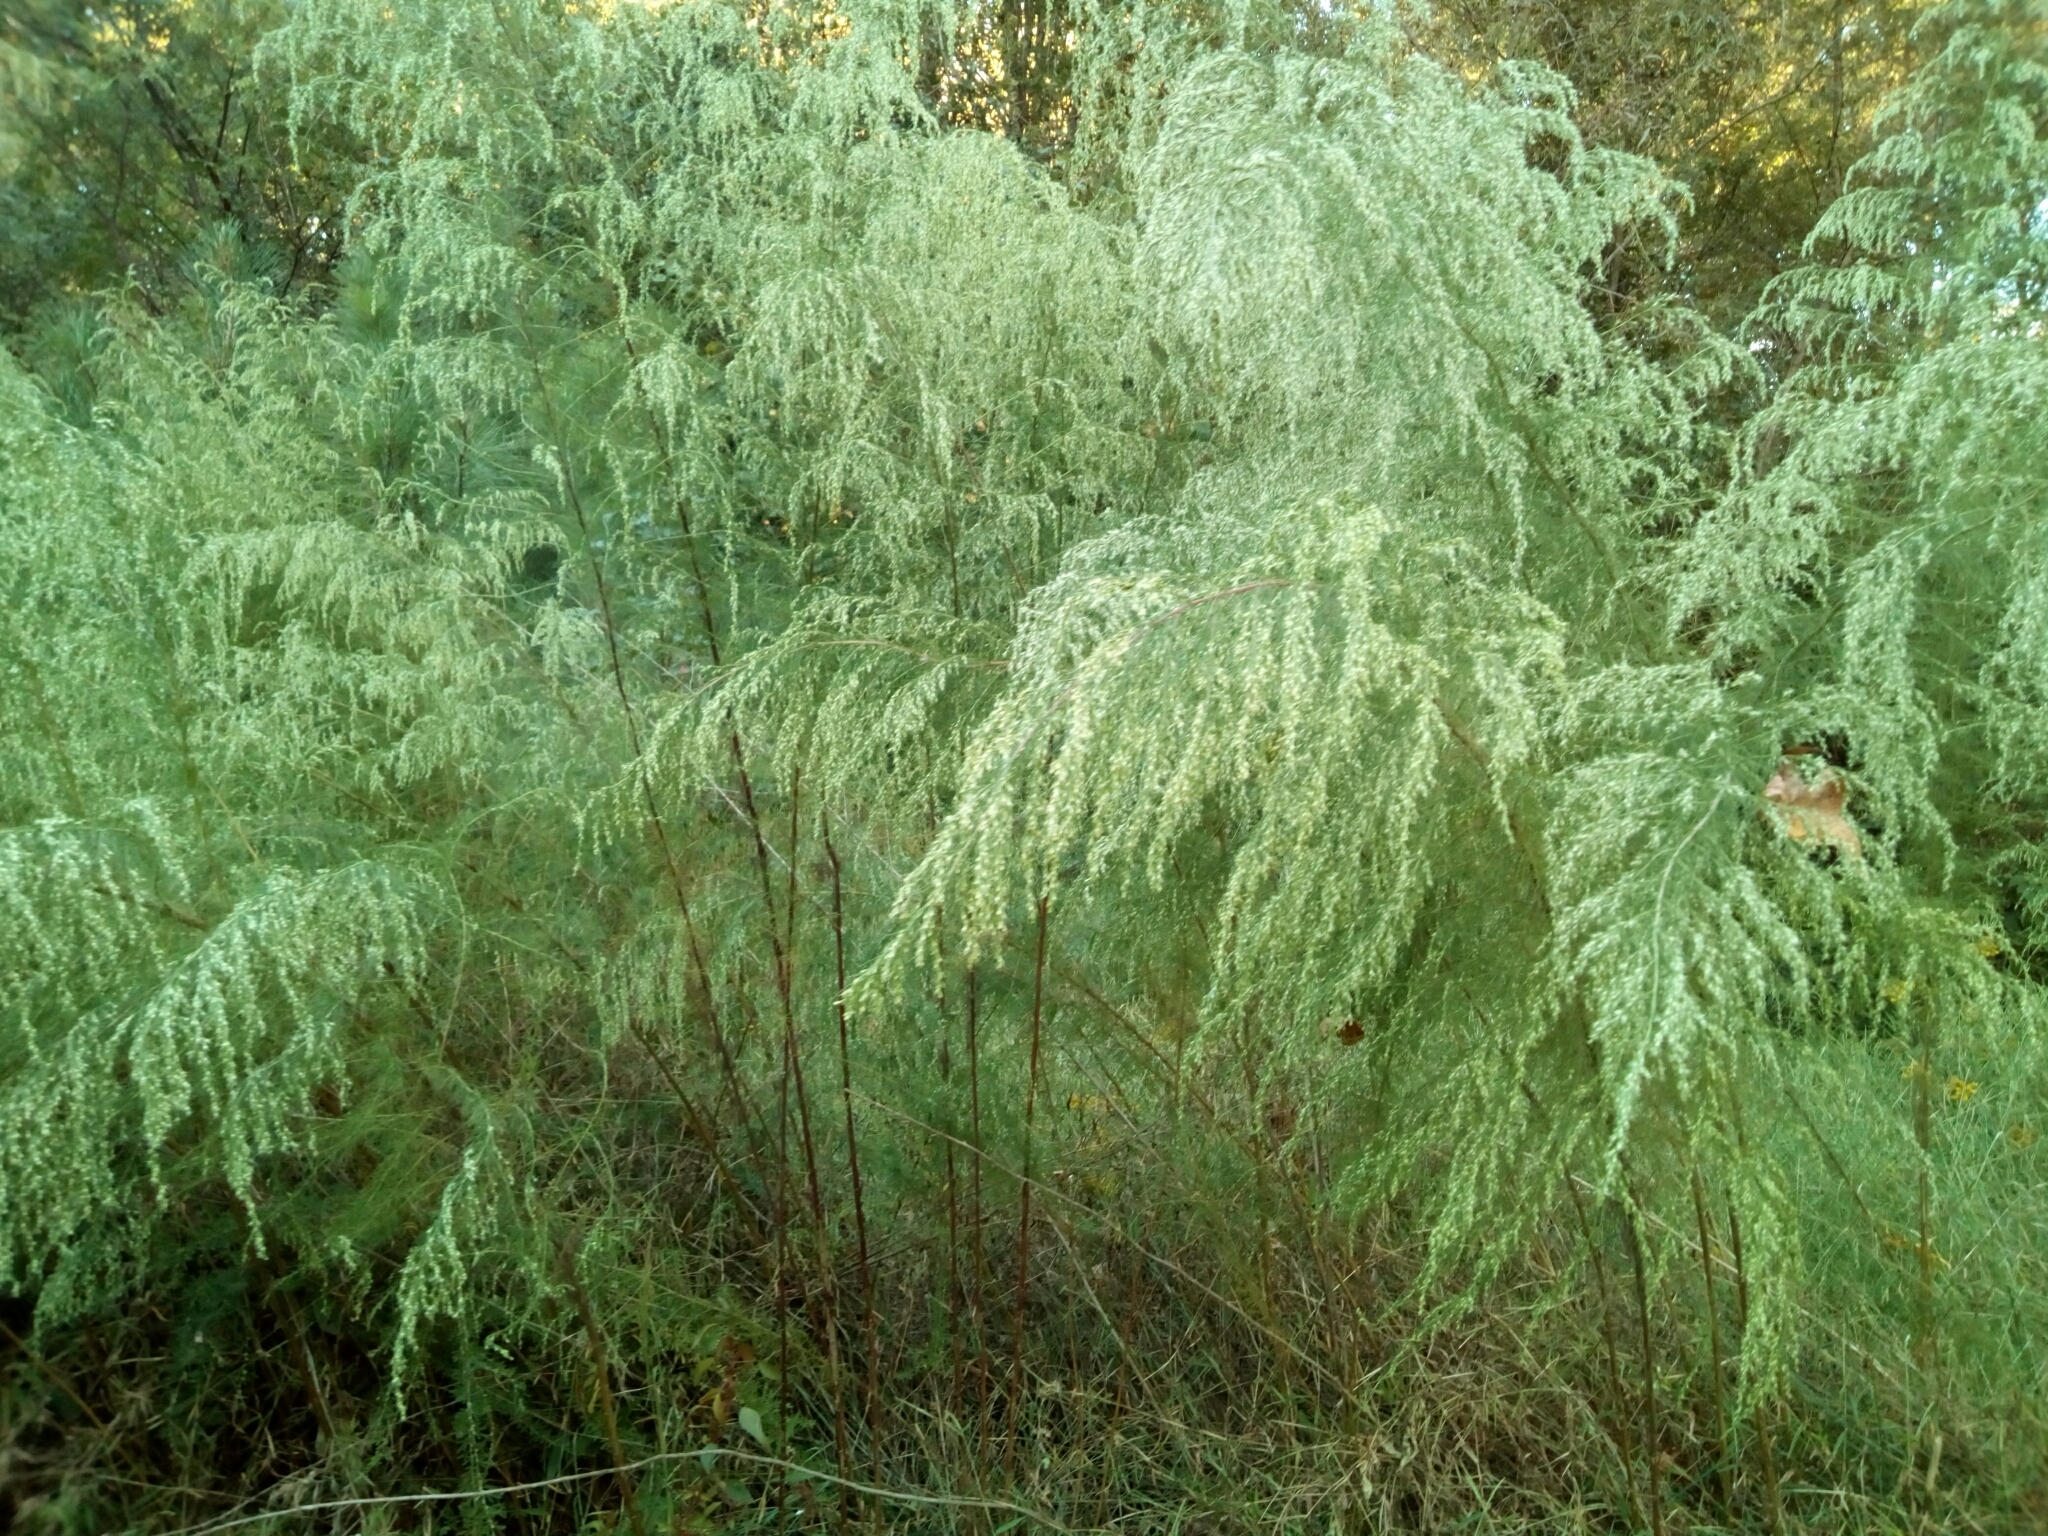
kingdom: Plantae
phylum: Tracheophyta
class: Magnoliopsida
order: Asterales
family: Asteraceae
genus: Eupatorium
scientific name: Eupatorium capillifolium
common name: Dog-fennel
